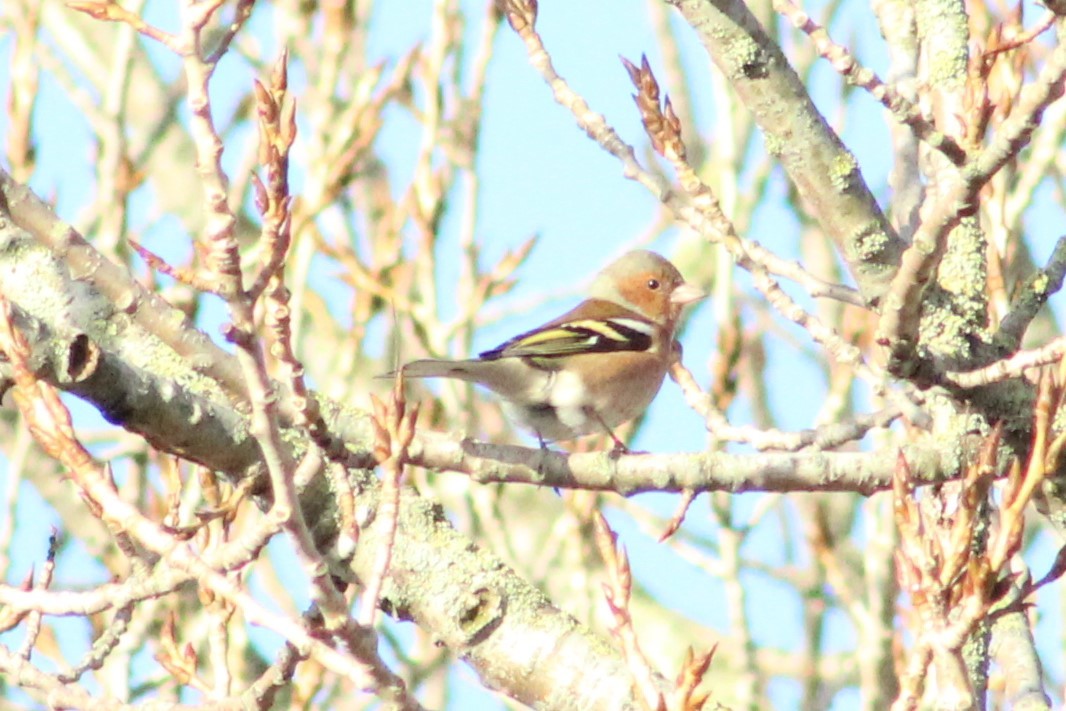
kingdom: Animalia
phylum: Chordata
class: Aves
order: Passeriformes
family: Fringillidae
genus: Fringilla
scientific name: Fringilla coelebs
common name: Common chaffinch
